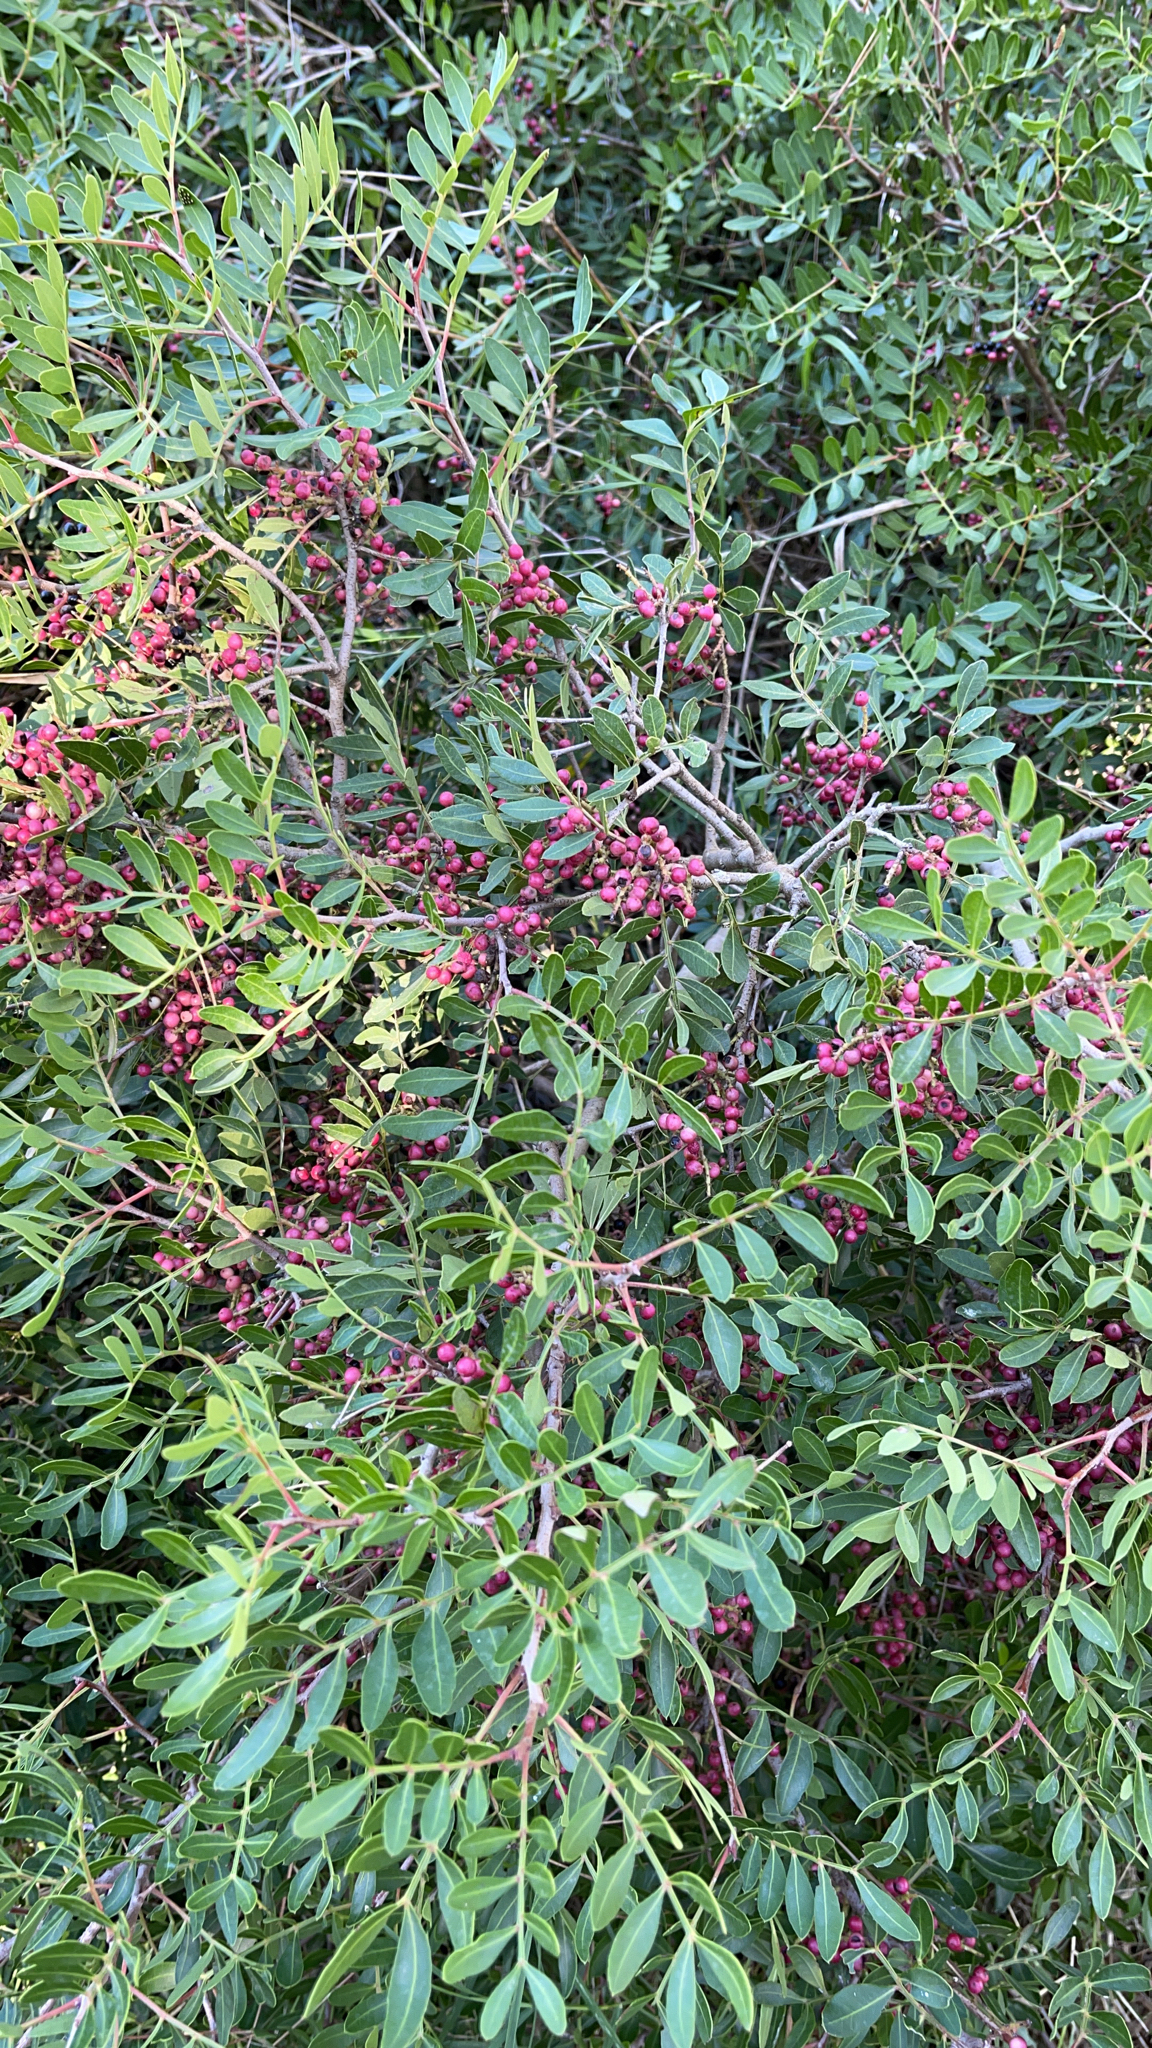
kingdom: Plantae
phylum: Tracheophyta
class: Magnoliopsida
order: Sapindales
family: Anacardiaceae
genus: Pistacia
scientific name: Pistacia lentiscus
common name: Lentisk
